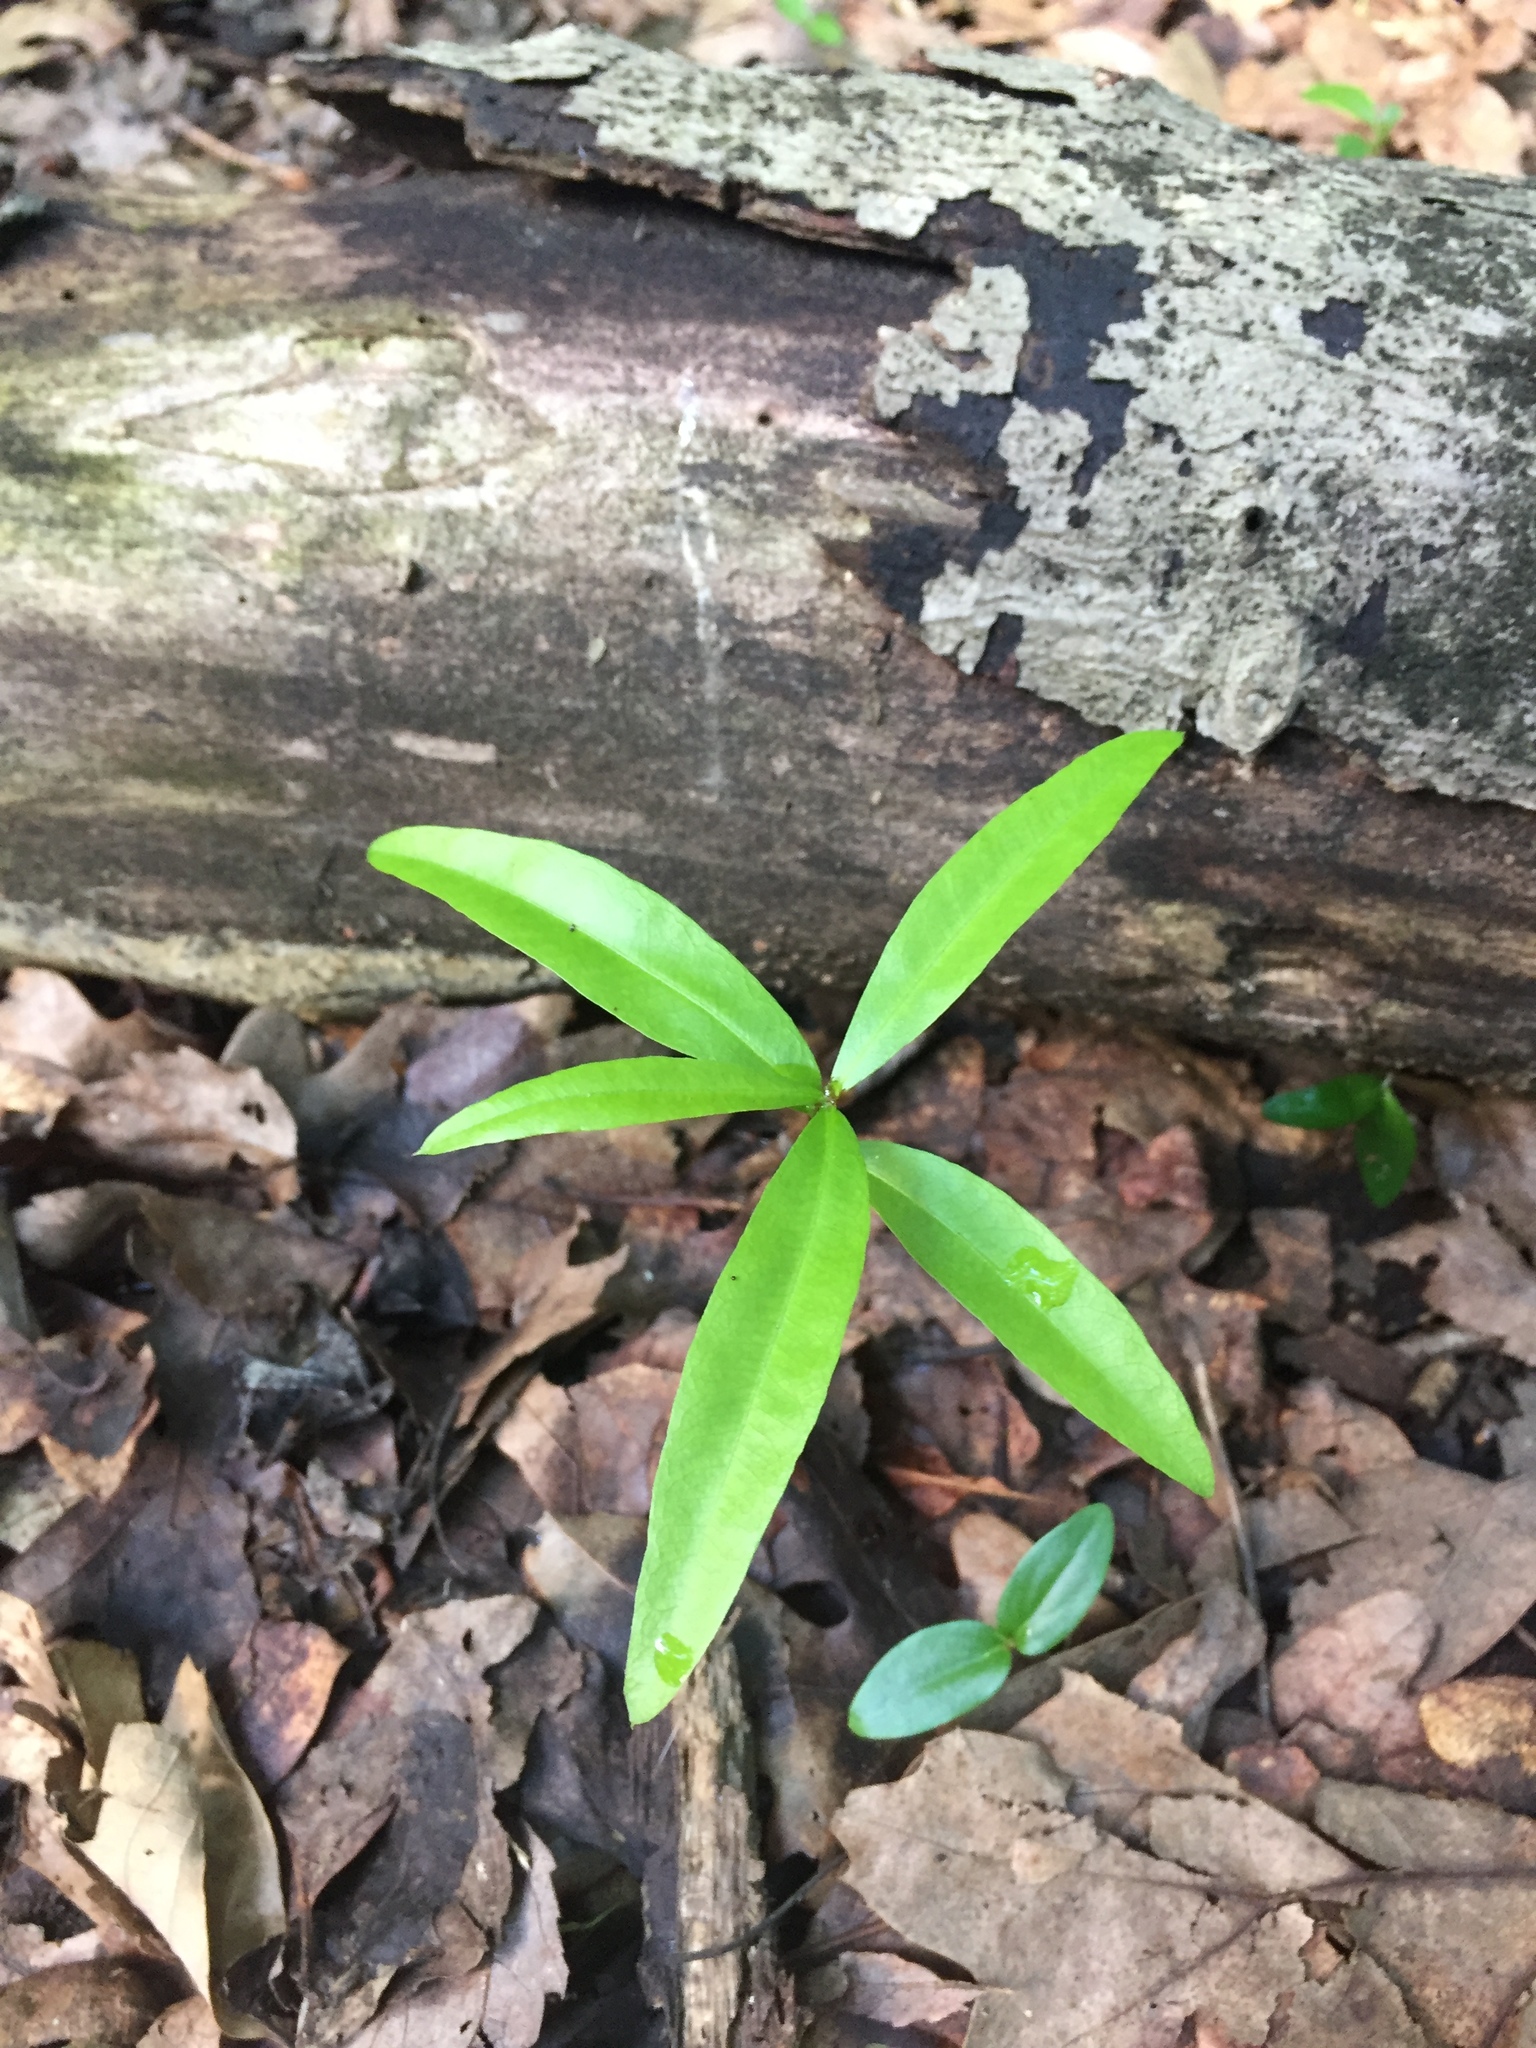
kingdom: Plantae
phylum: Tracheophyta
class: Magnoliopsida
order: Fagales
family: Fagaceae
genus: Quercus
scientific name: Quercus phellos
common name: Willow oak
